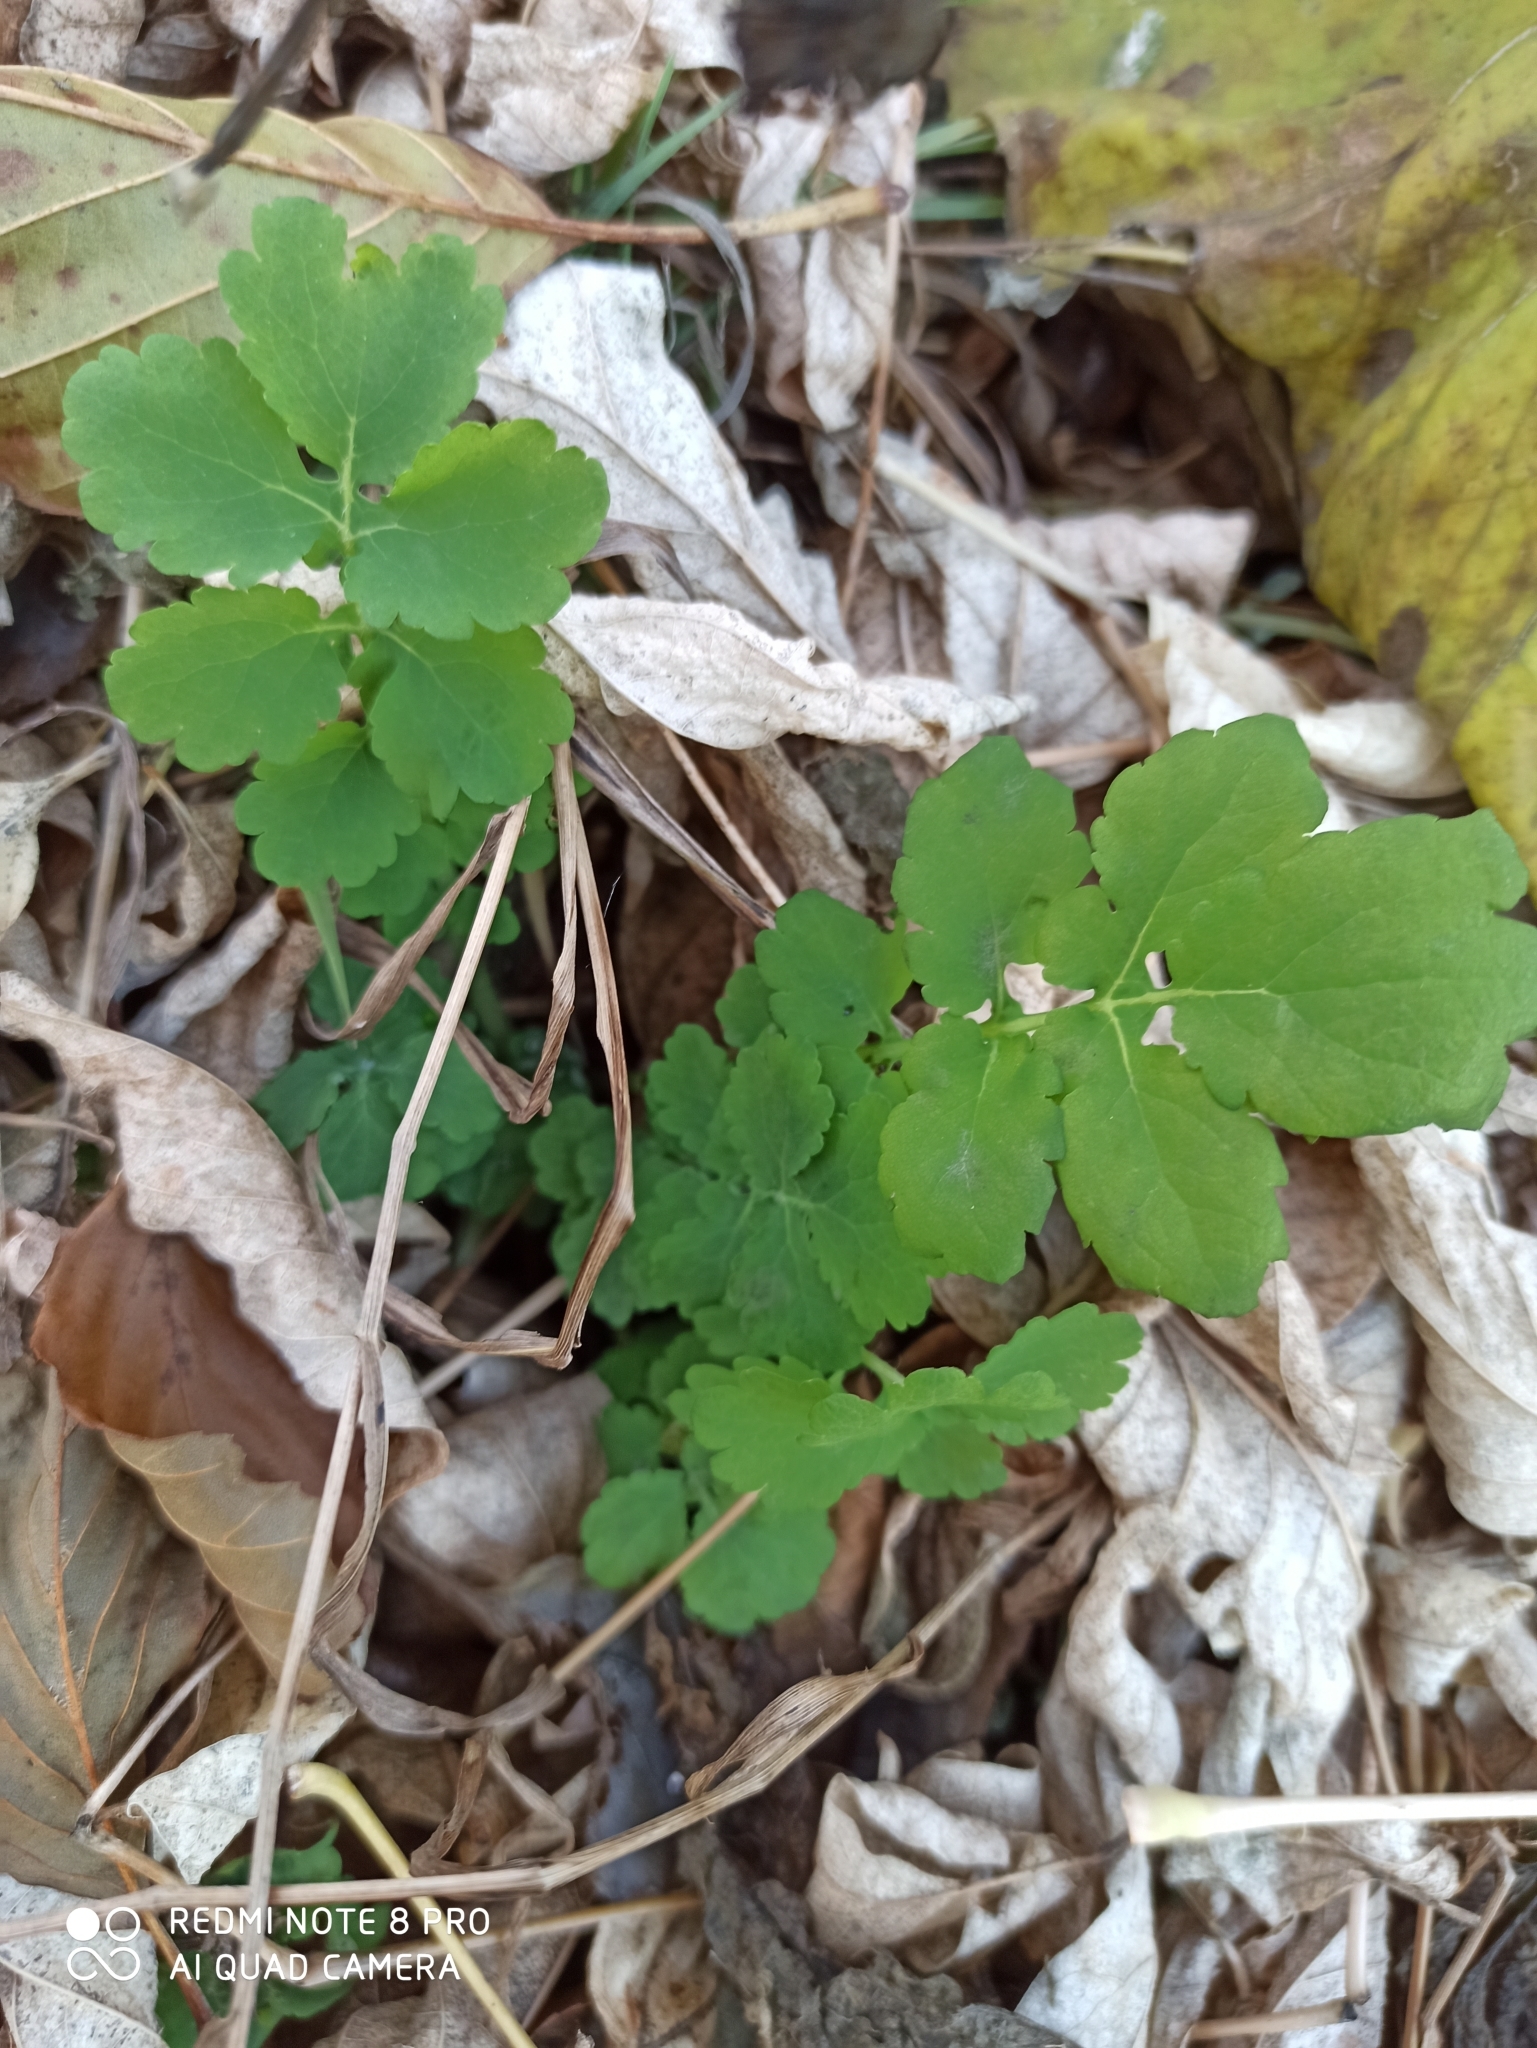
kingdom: Plantae
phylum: Tracheophyta
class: Magnoliopsida
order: Ranunculales
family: Papaveraceae
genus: Chelidonium
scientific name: Chelidonium majus
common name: Greater celandine
